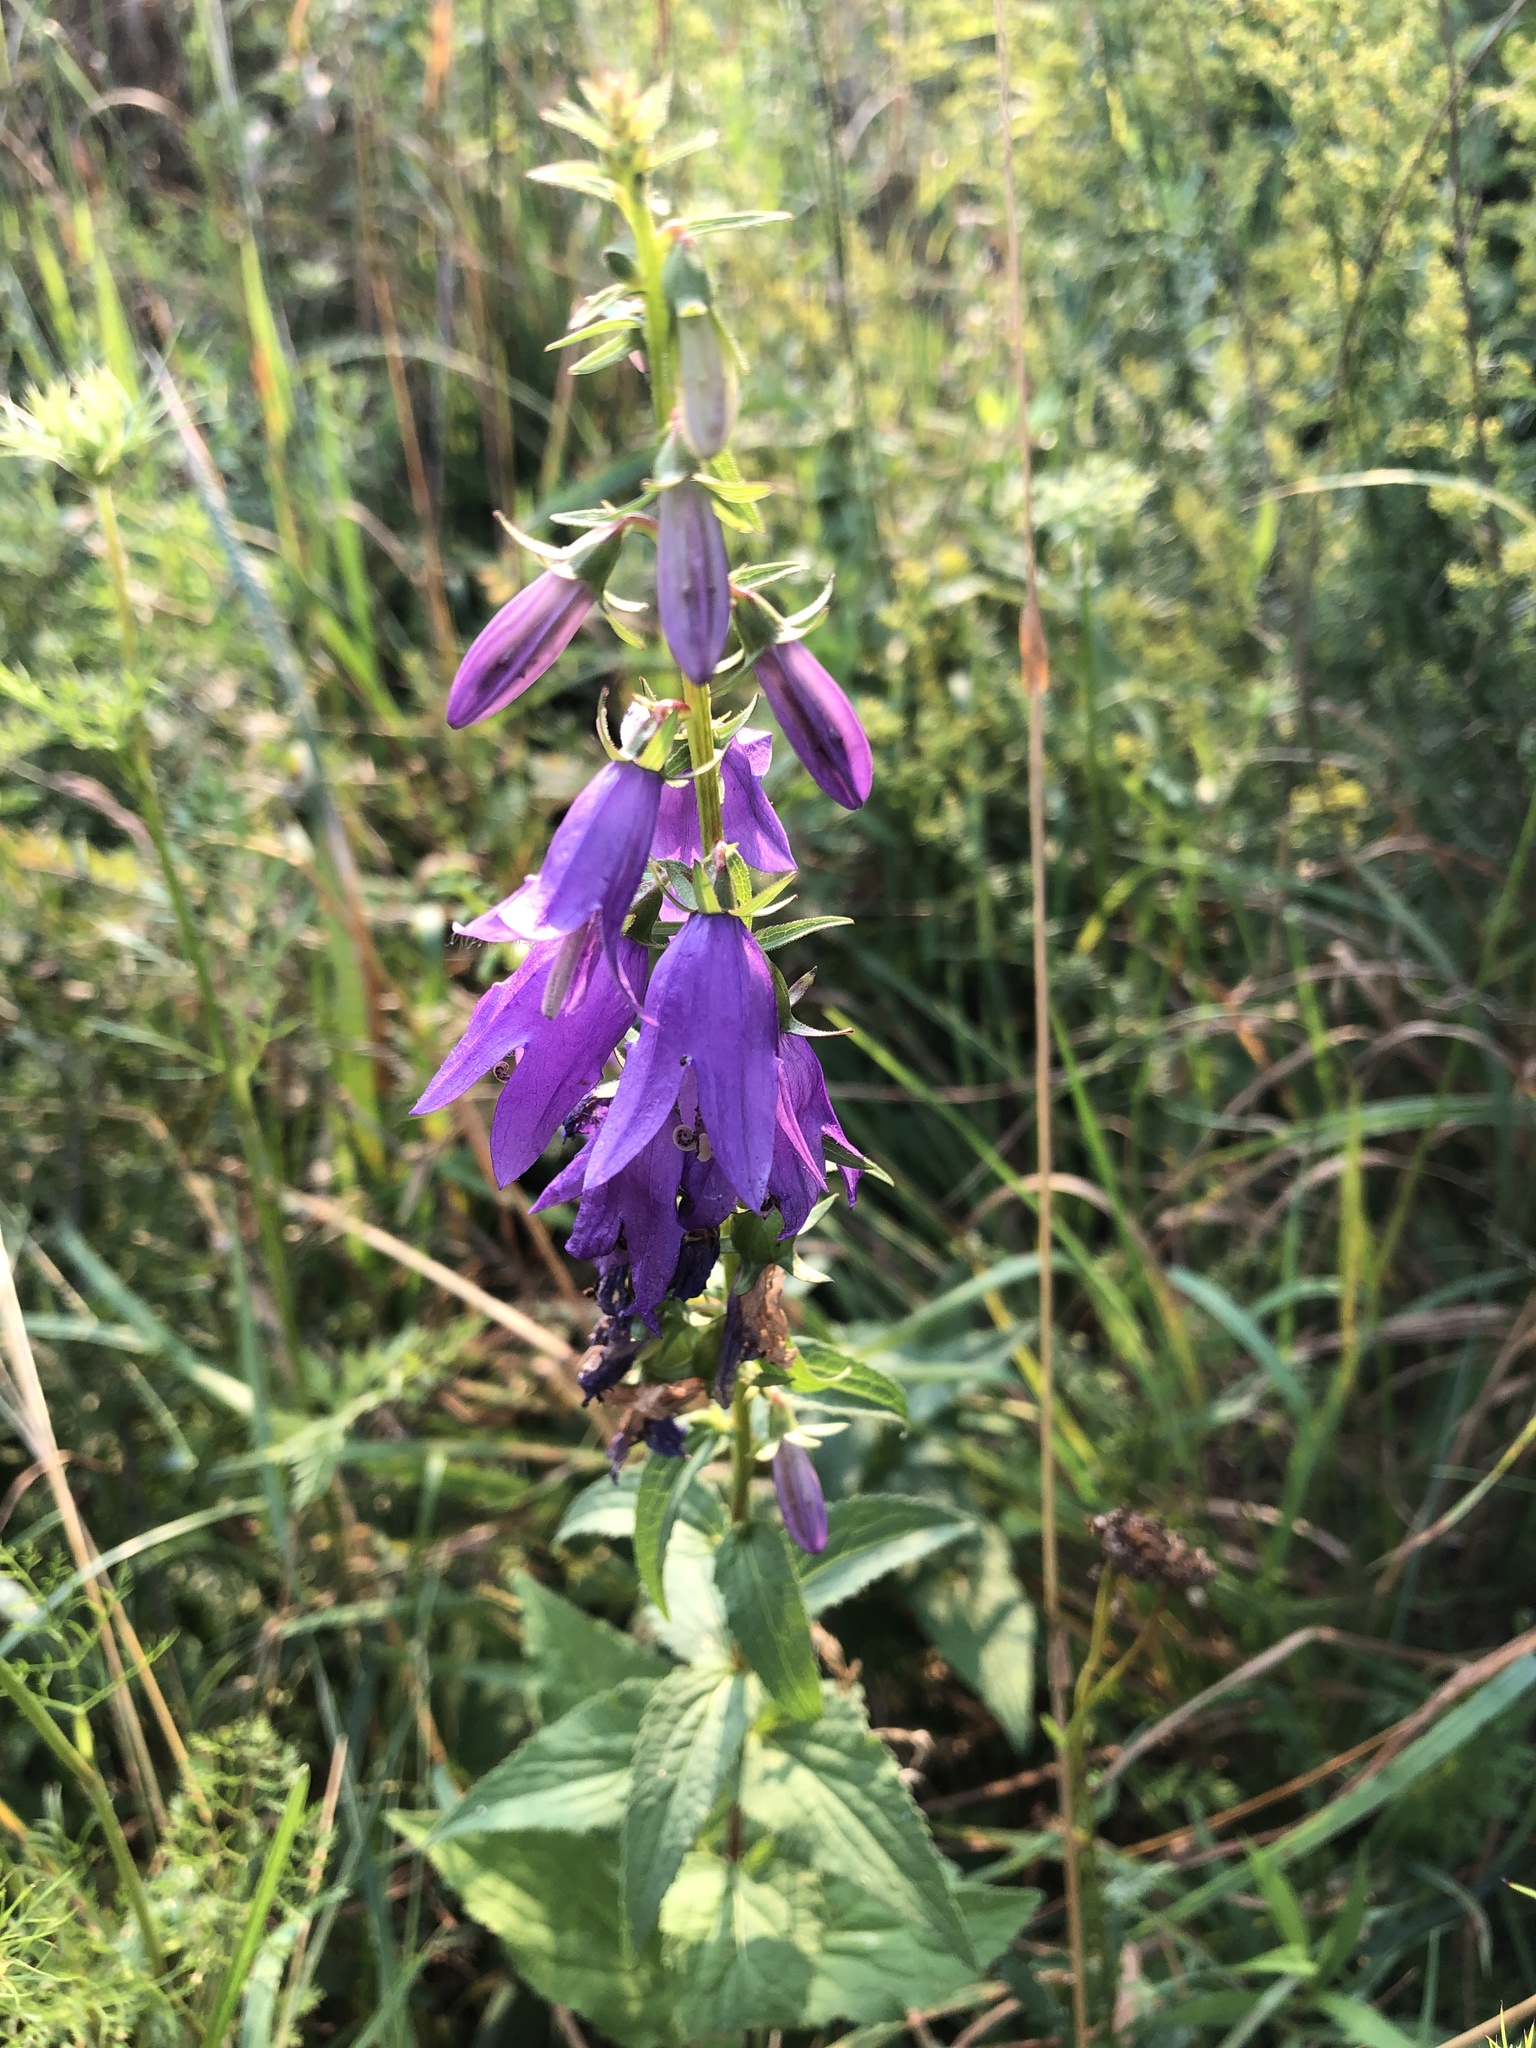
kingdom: Plantae
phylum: Tracheophyta
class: Magnoliopsida
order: Asterales
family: Campanulaceae
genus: Campanula
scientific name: Campanula rapunculoides
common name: Creeping bellflower
